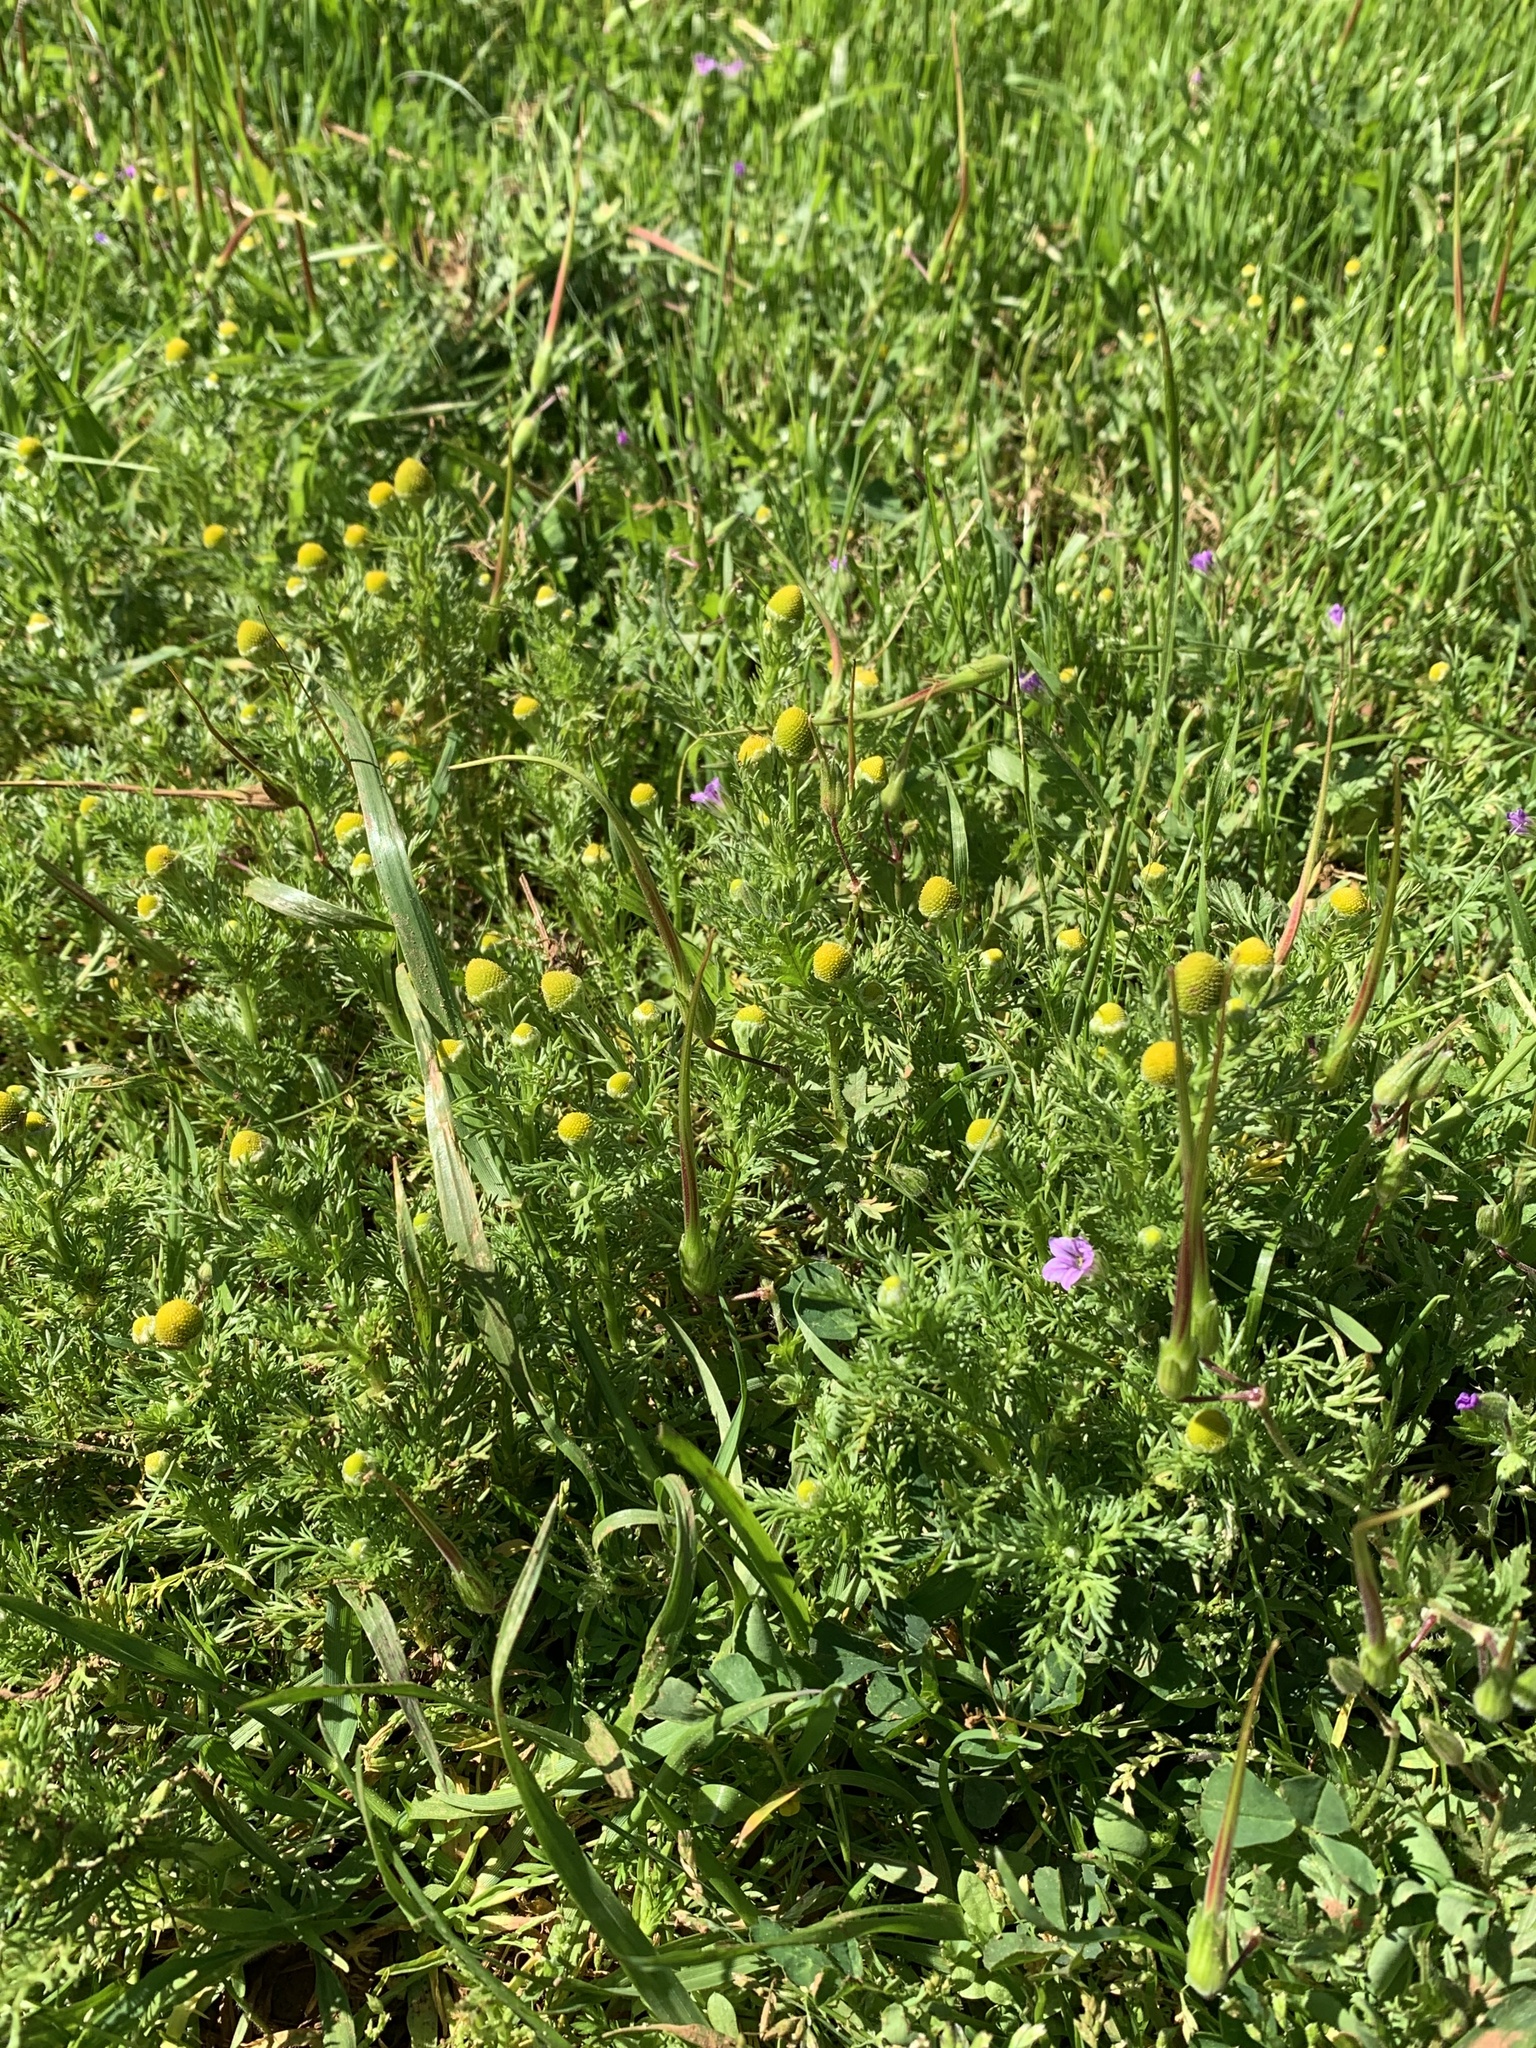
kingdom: Plantae
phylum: Tracheophyta
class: Magnoliopsida
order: Asterales
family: Asteraceae
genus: Matricaria
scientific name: Matricaria discoidea
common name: Disc mayweed
